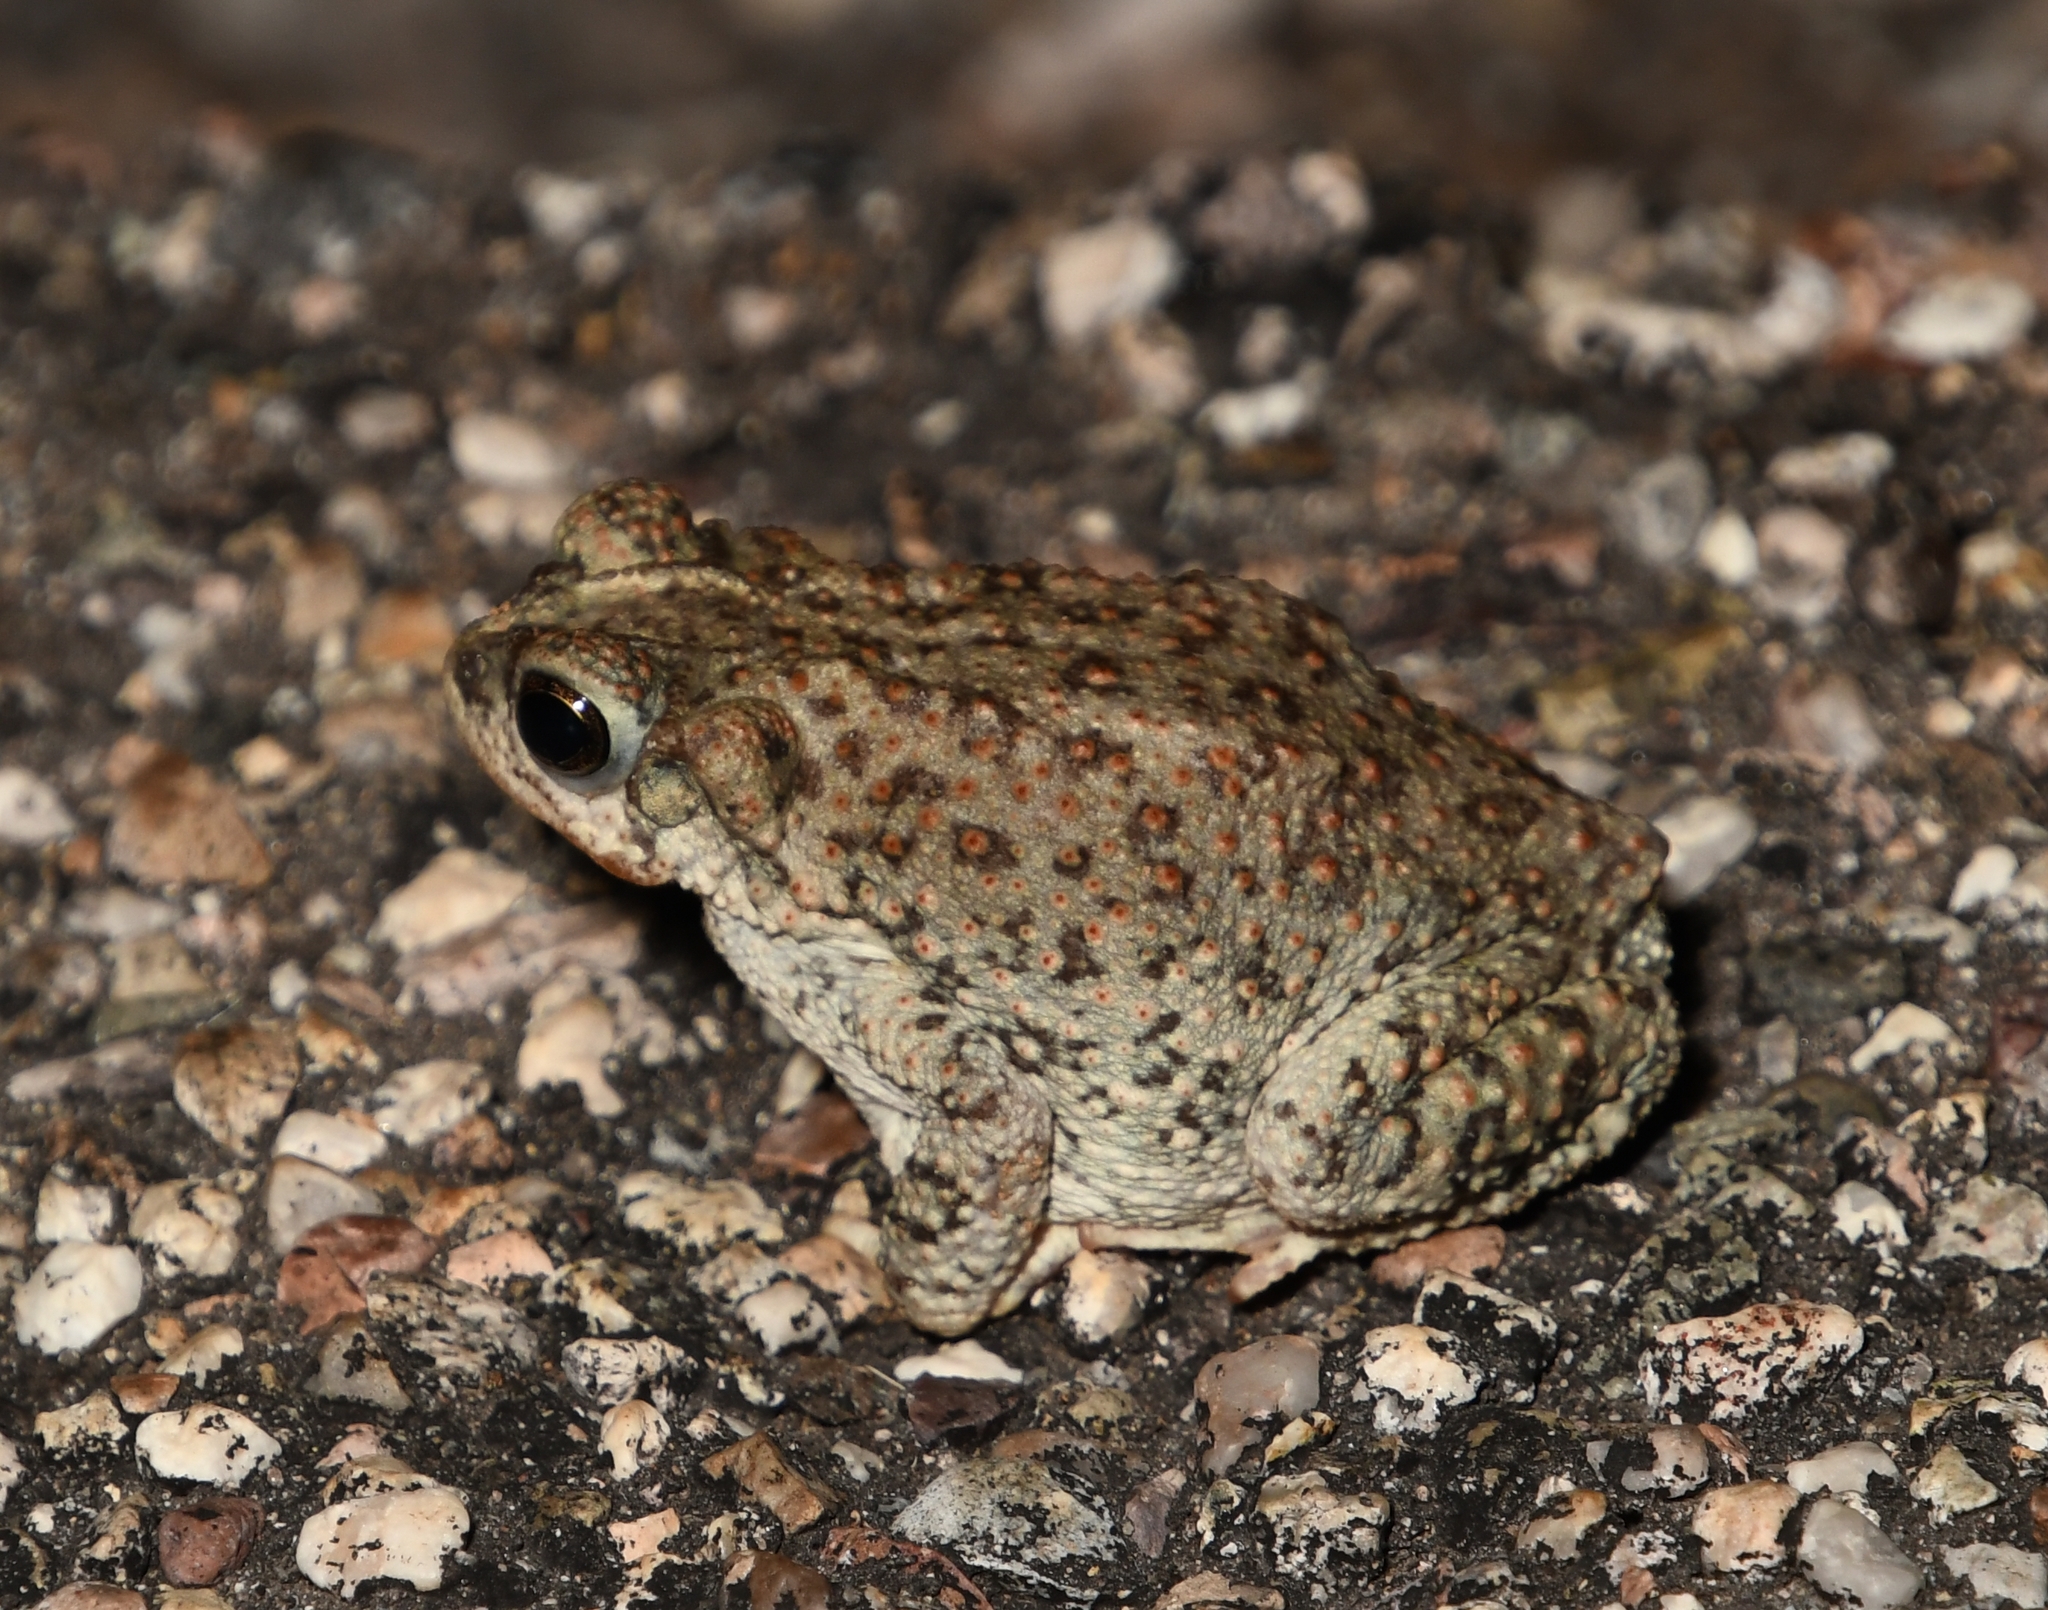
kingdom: Animalia
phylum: Chordata
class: Amphibia
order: Anura
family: Bufonidae
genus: Anaxyrus
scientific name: Anaxyrus punctatus
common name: Red-spotted toad
